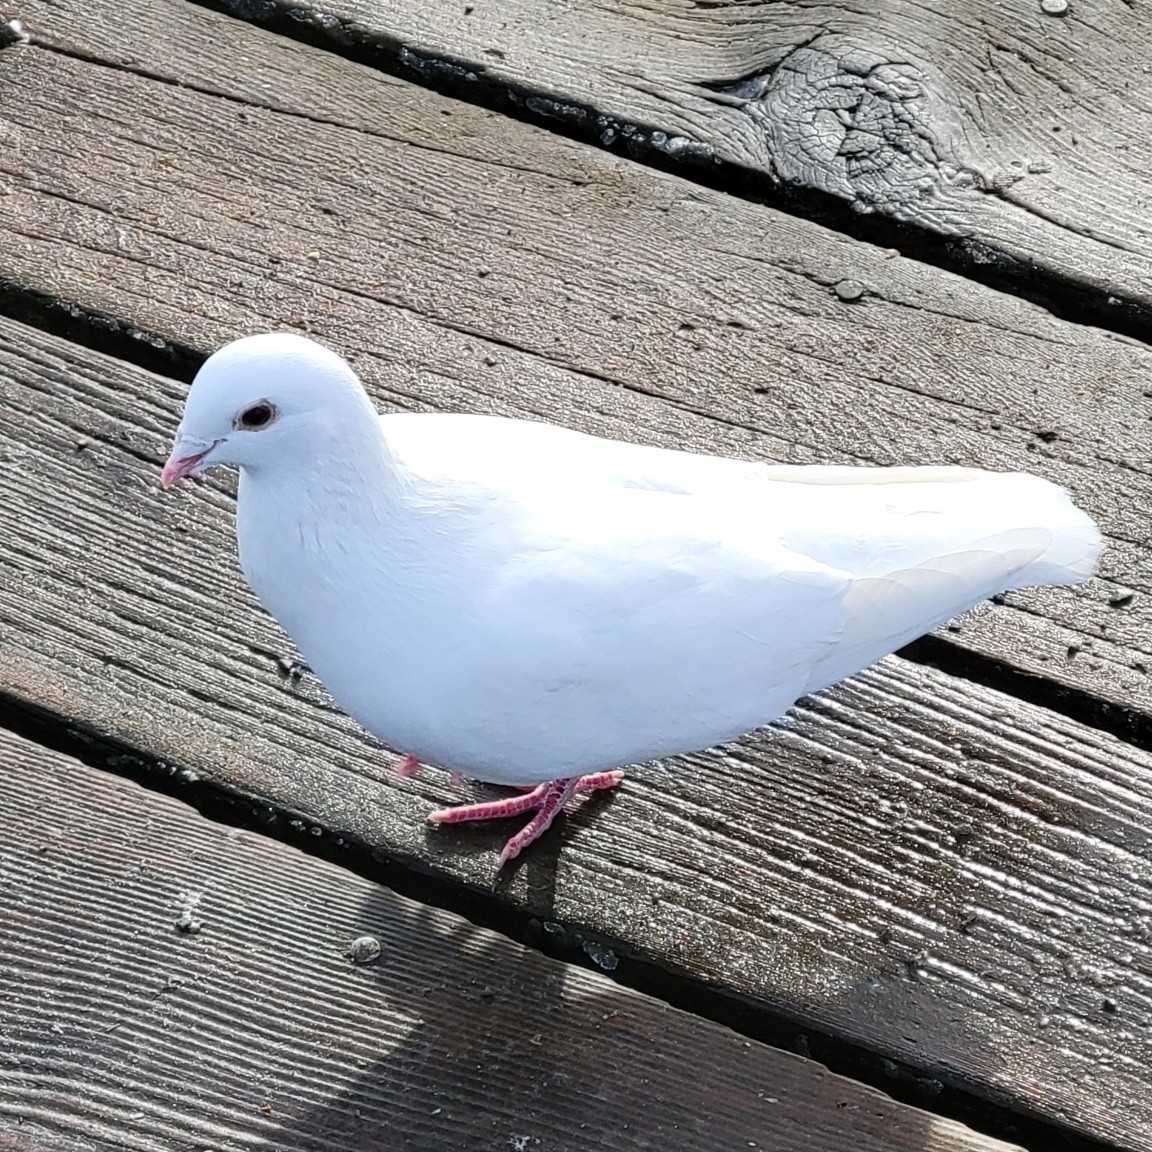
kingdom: Animalia
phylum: Chordata
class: Aves
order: Columbiformes
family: Columbidae
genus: Columba
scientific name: Columba livia
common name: Rock pigeon
